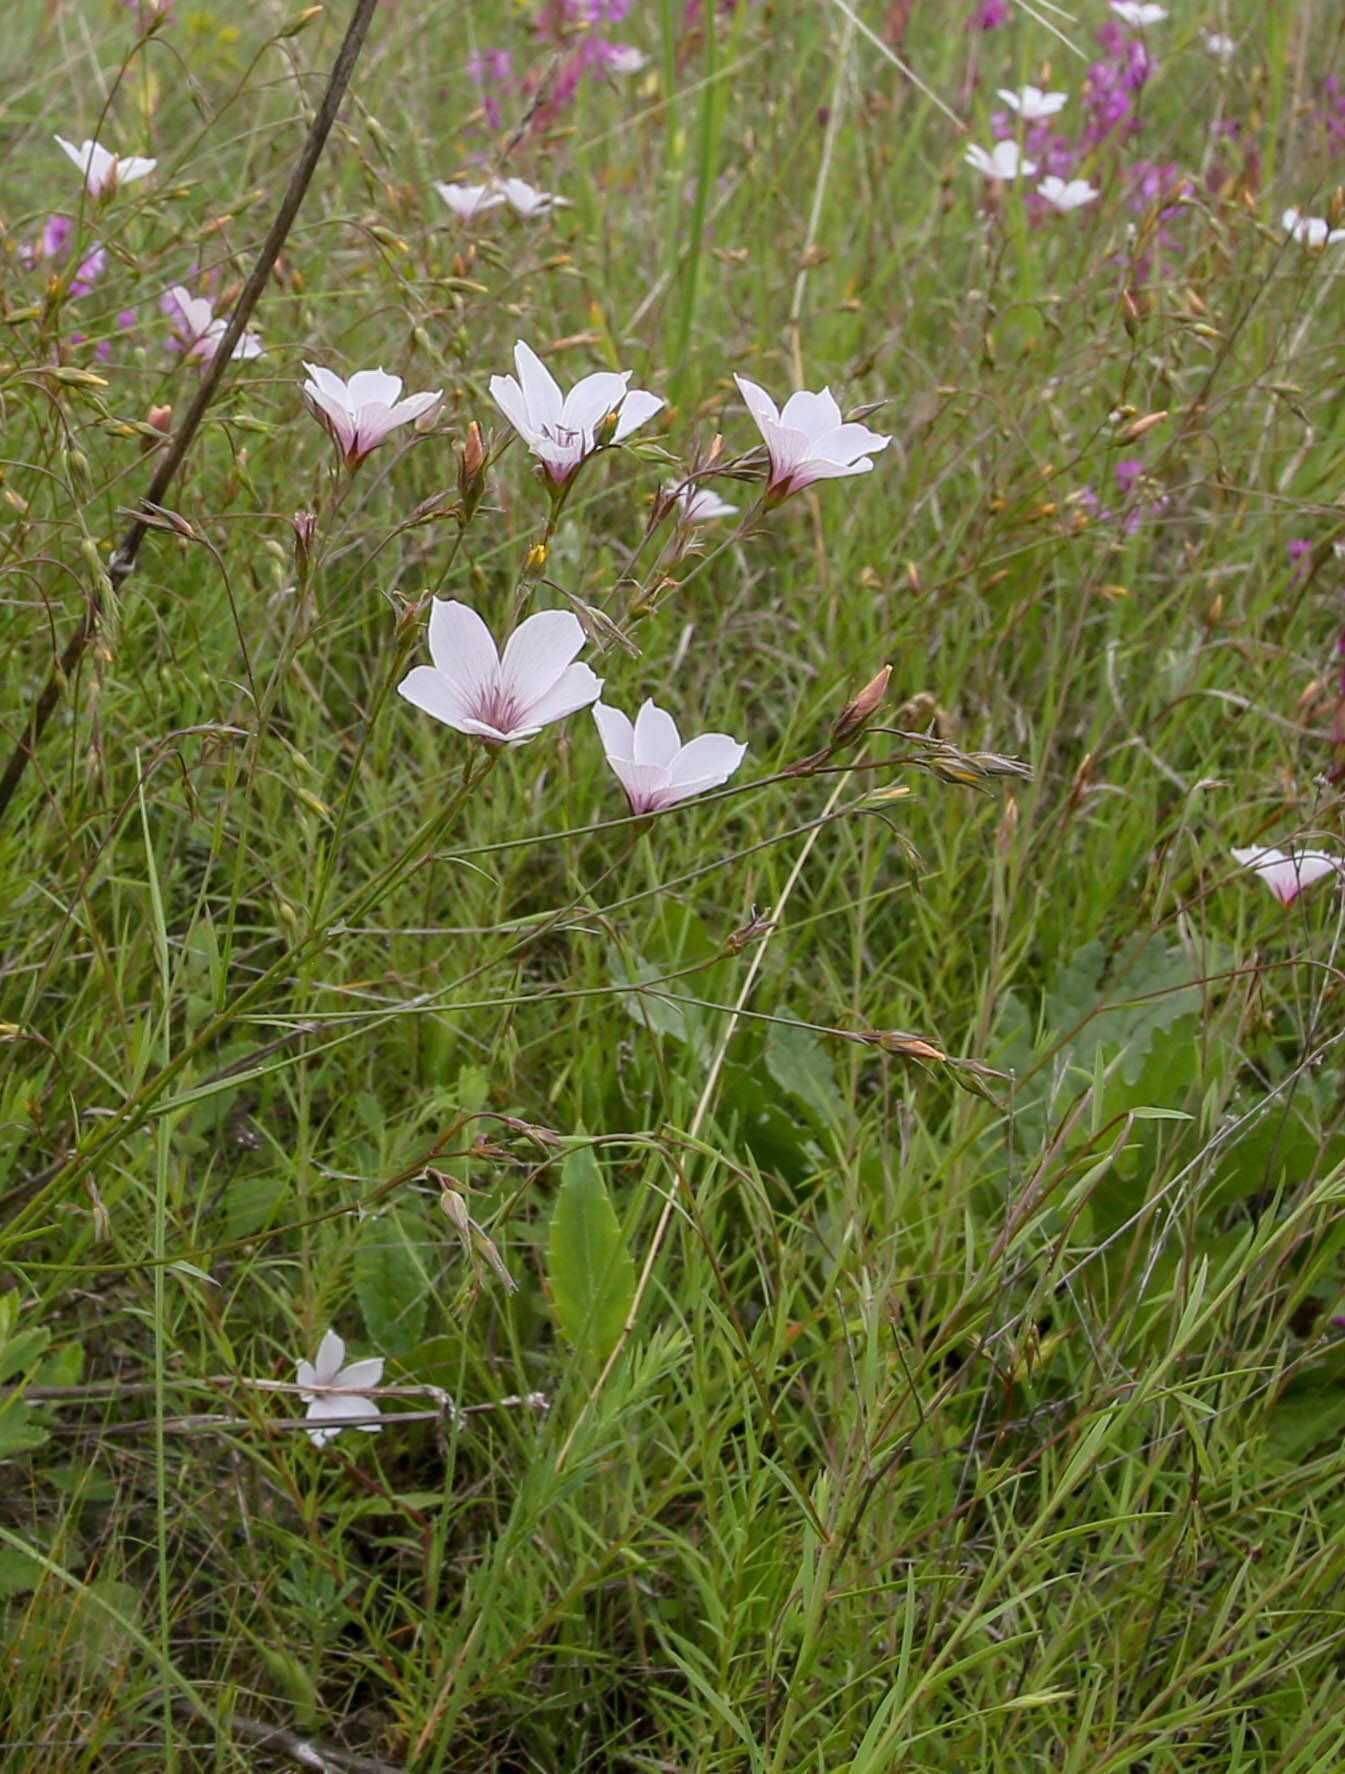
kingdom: Plantae
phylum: Tracheophyta
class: Magnoliopsida
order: Malpighiales
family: Linaceae
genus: Linum
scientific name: Linum tenuifolium
